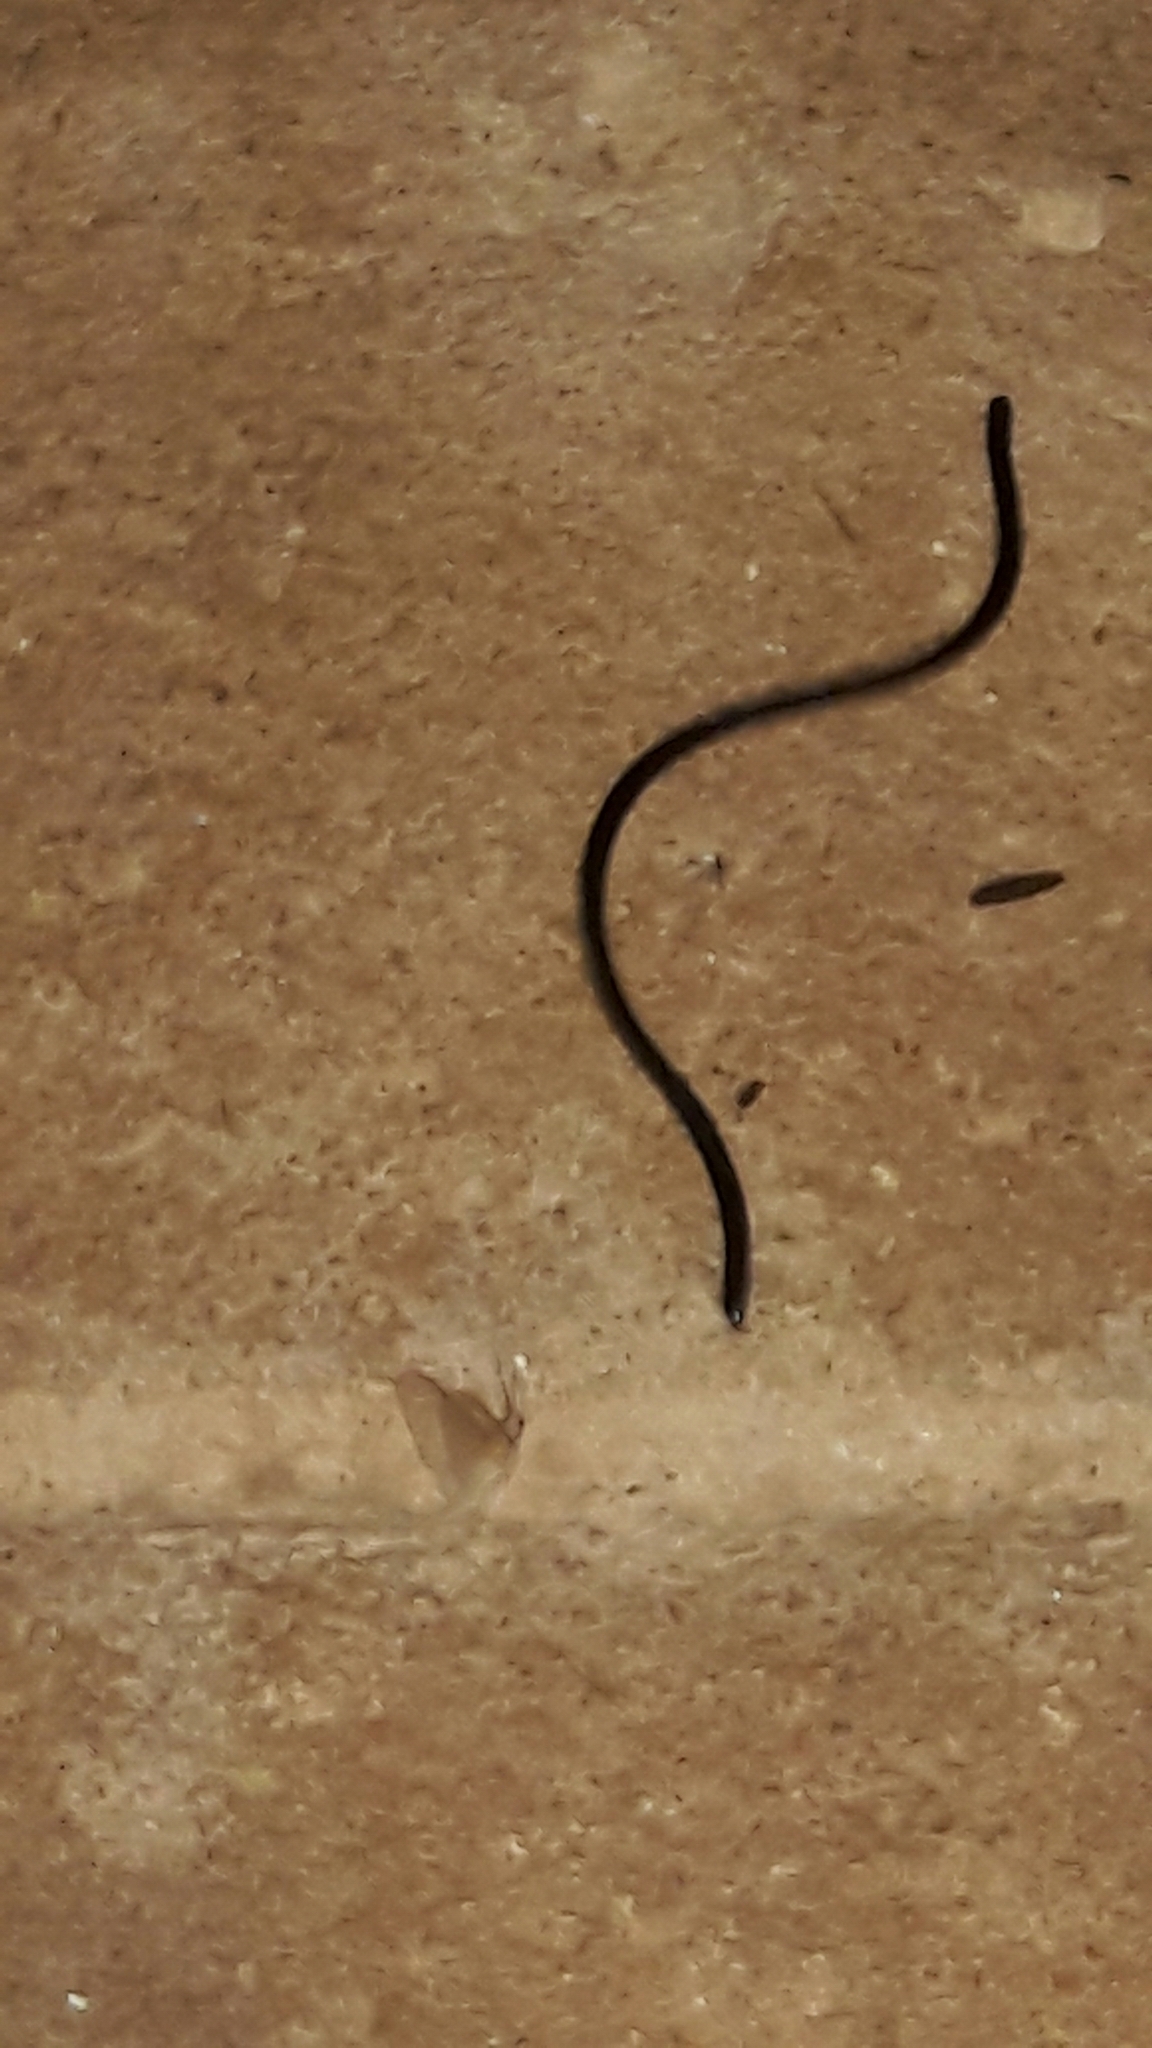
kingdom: Animalia
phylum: Chordata
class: Squamata
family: Anomalepididae
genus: Liotyphlops
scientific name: Liotyphlops ternetzii
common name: Ternetz's blind snake
